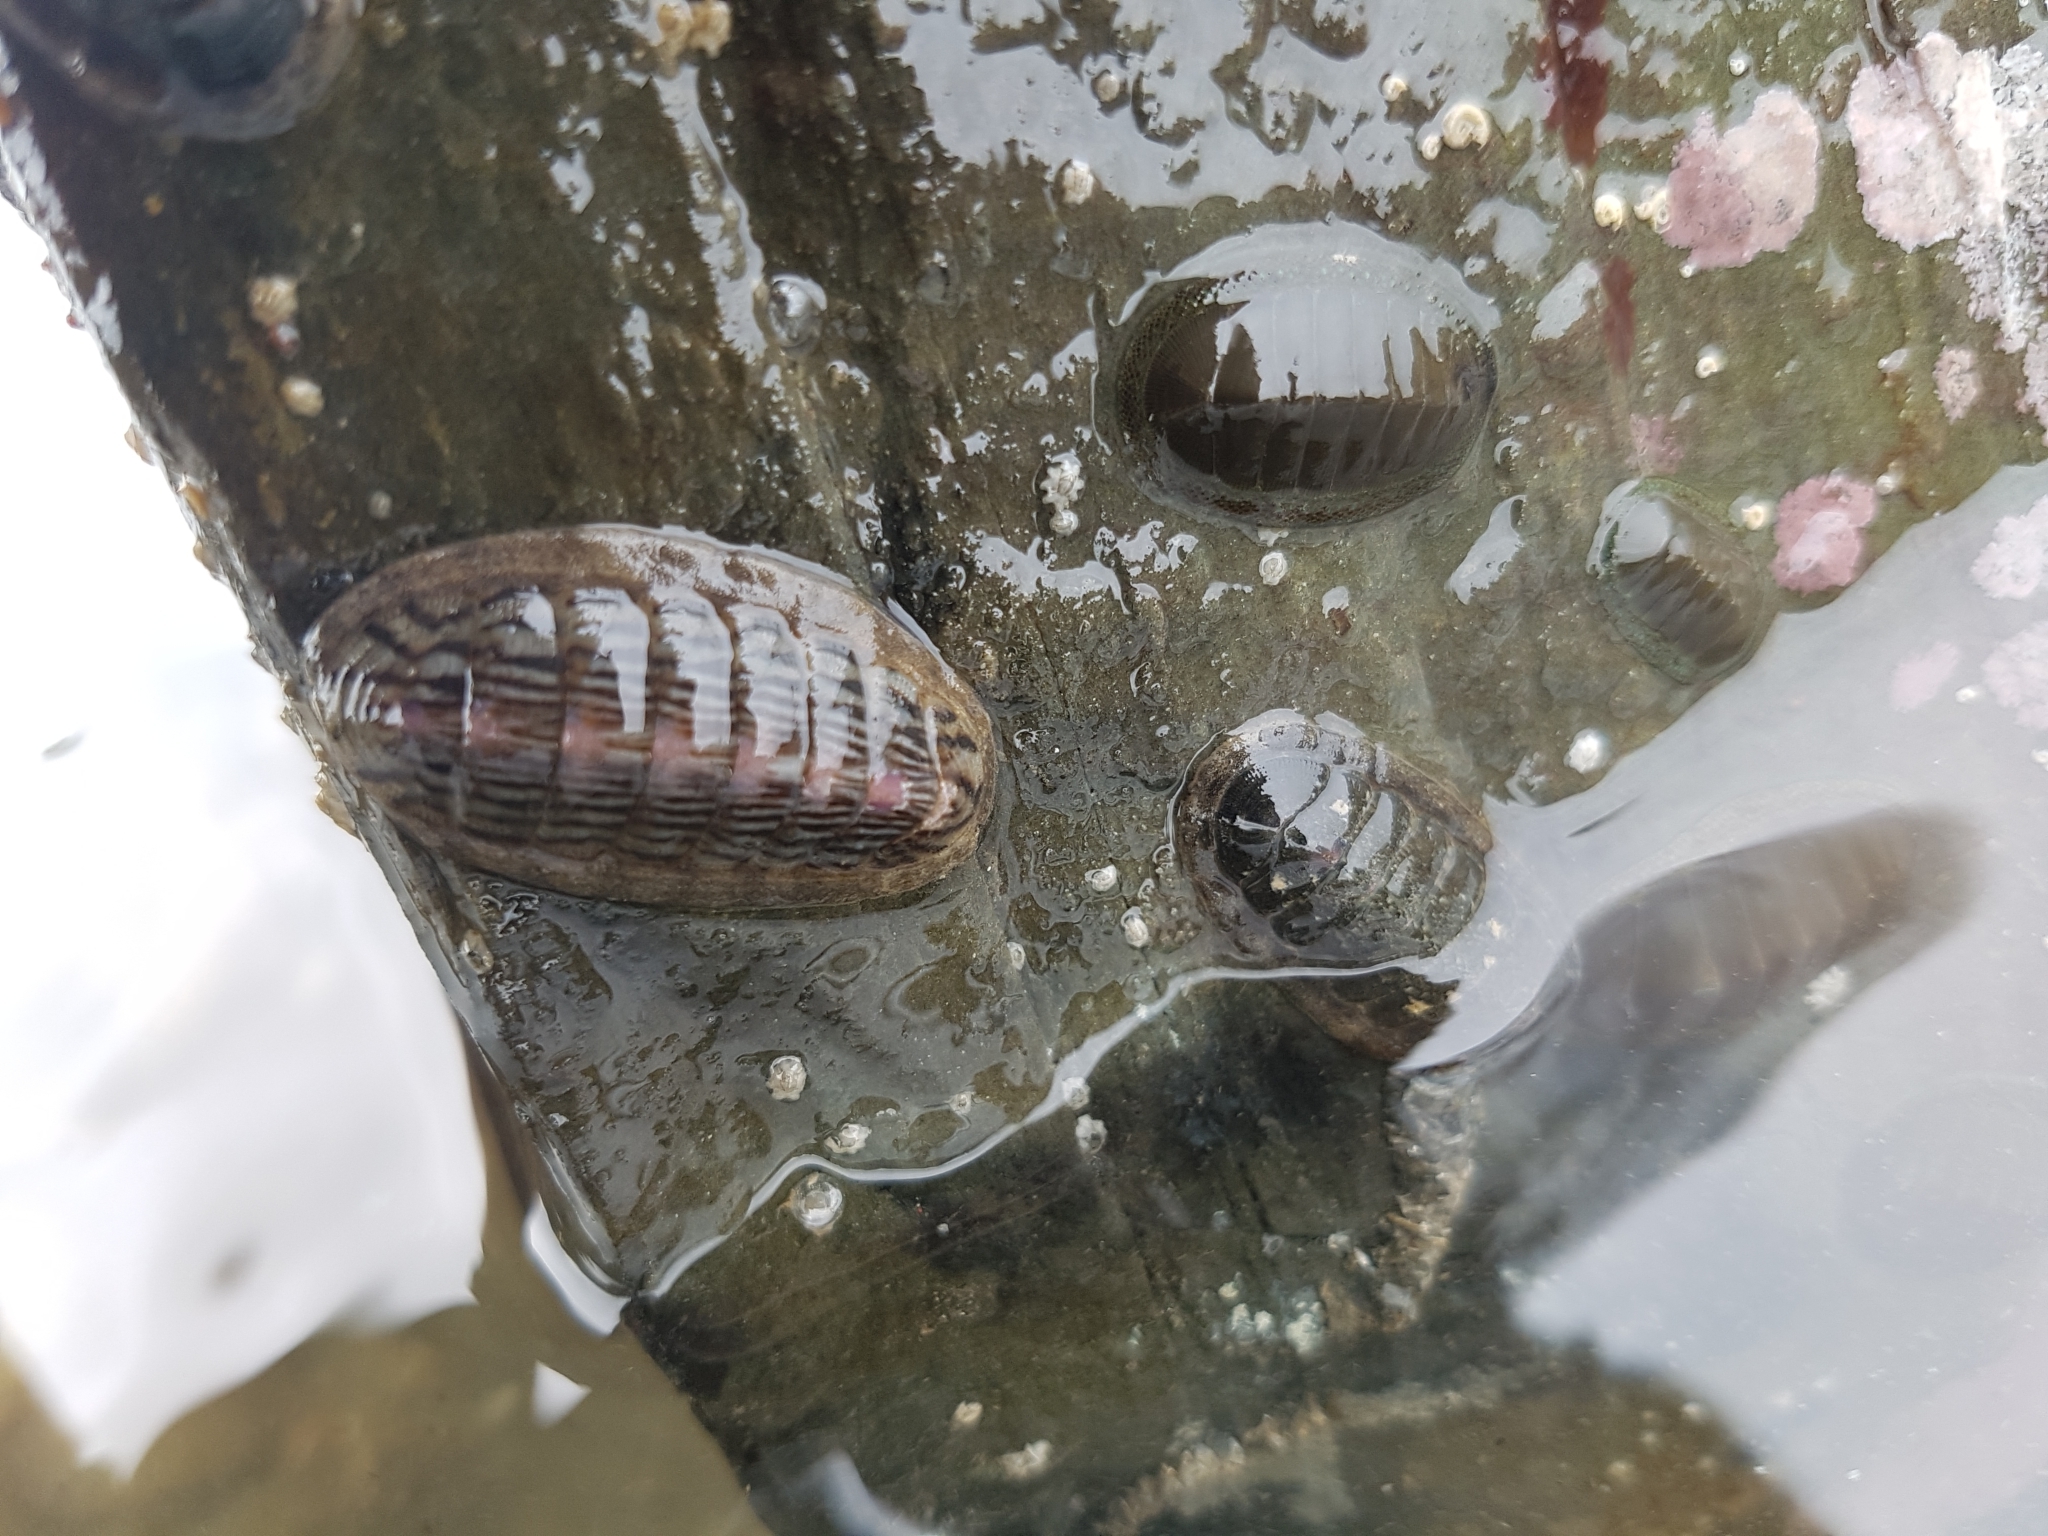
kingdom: Animalia
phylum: Mollusca
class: Polyplacophora
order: Chitonida
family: Ischnochitonidae
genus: Ischnochiton
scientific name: Ischnochiton maorianus
